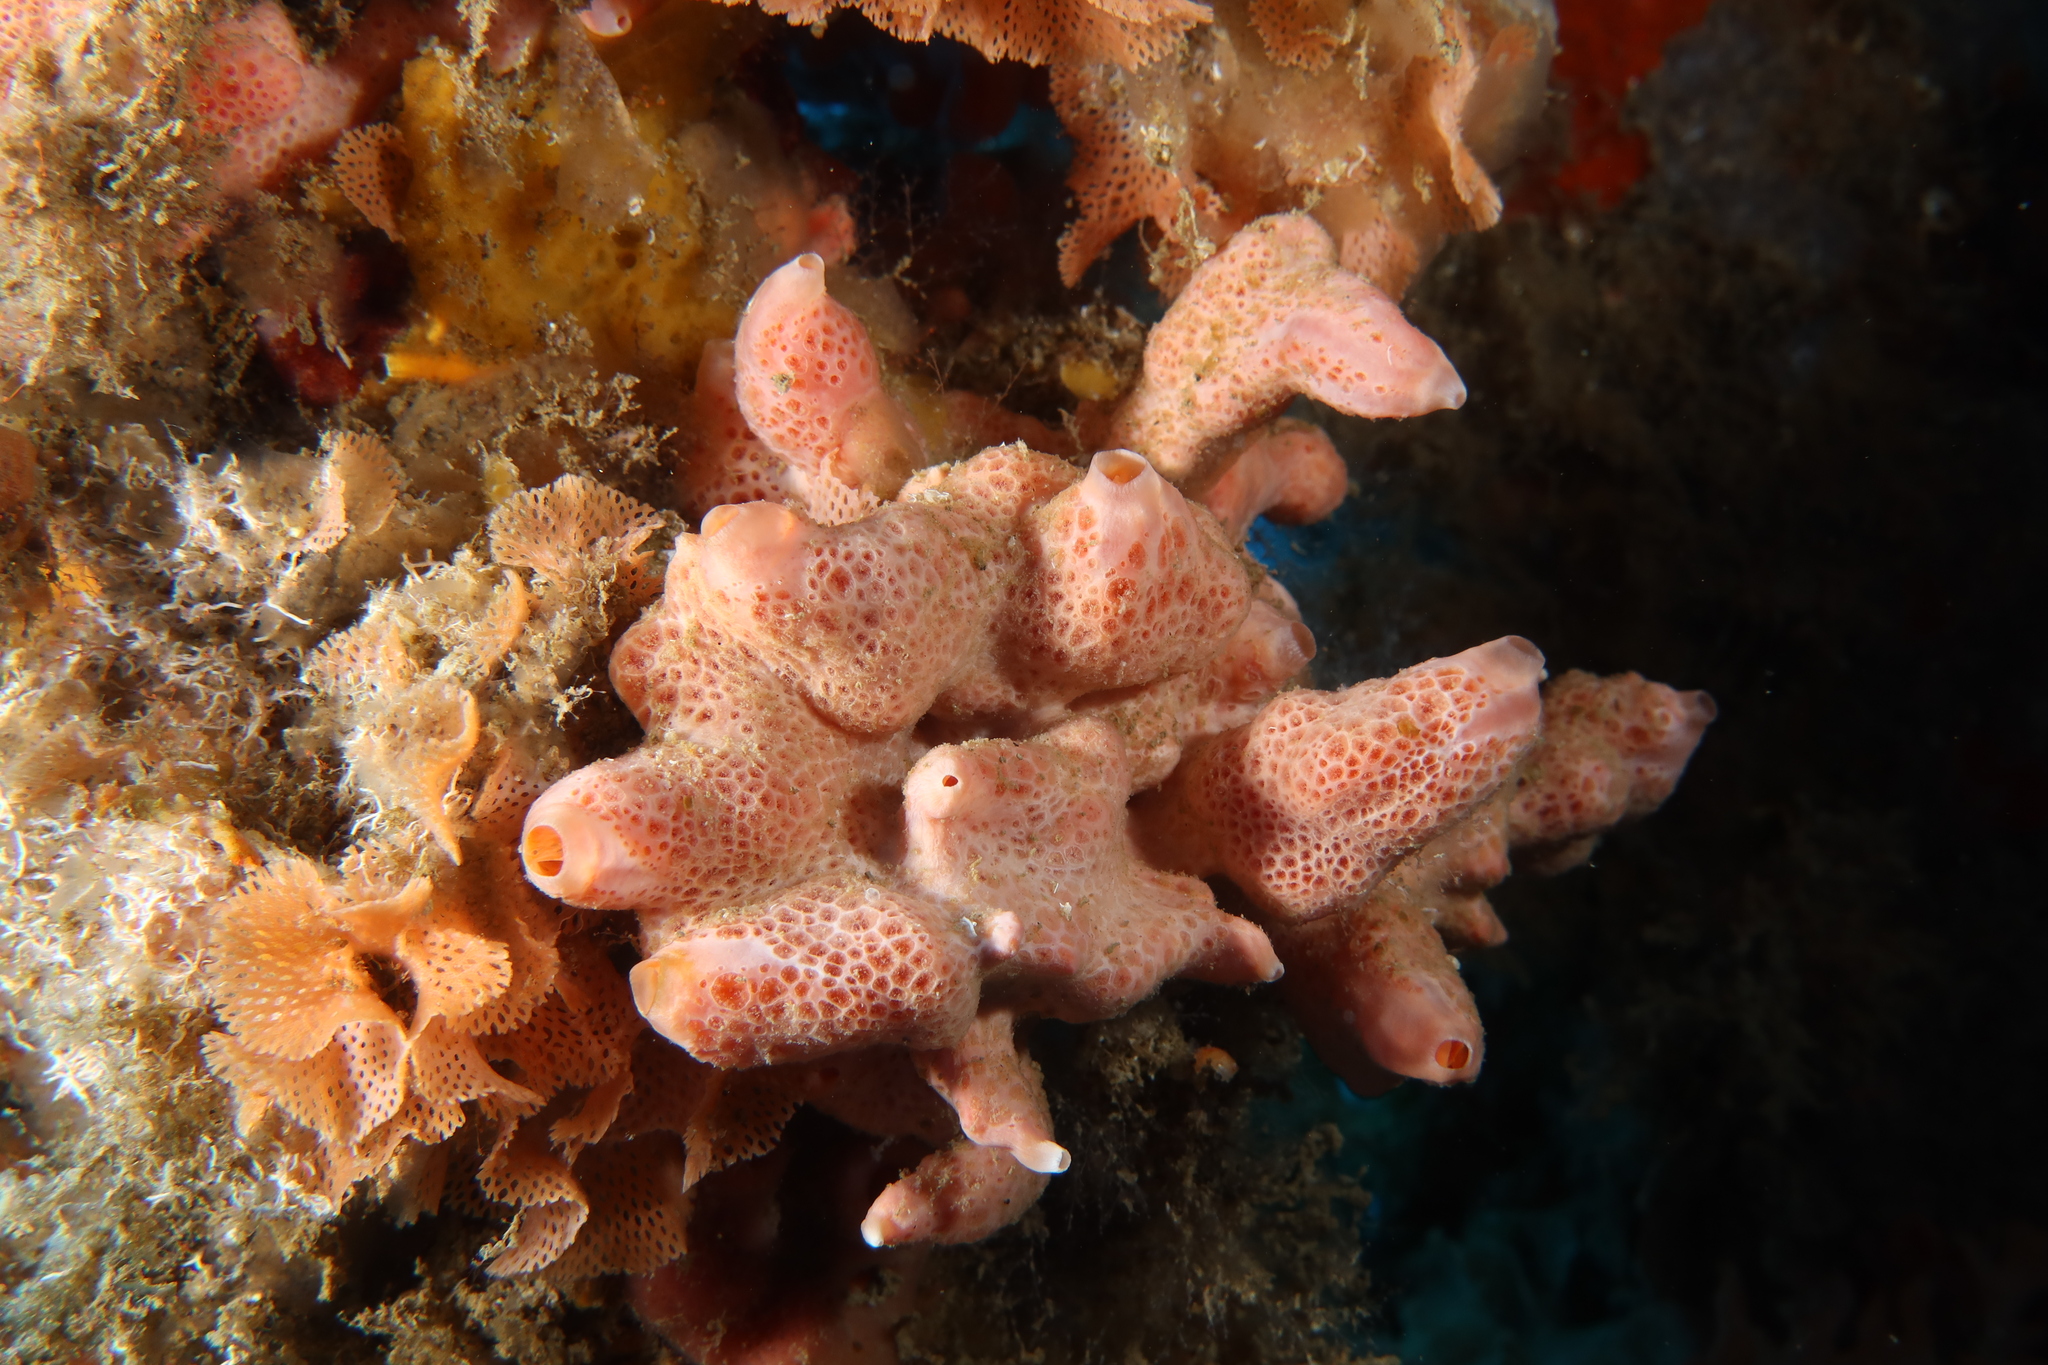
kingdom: Animalia
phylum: Porifera
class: Demospongiae
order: Poecilosclerida
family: Crellidae
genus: Crella
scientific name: Crella elegans
